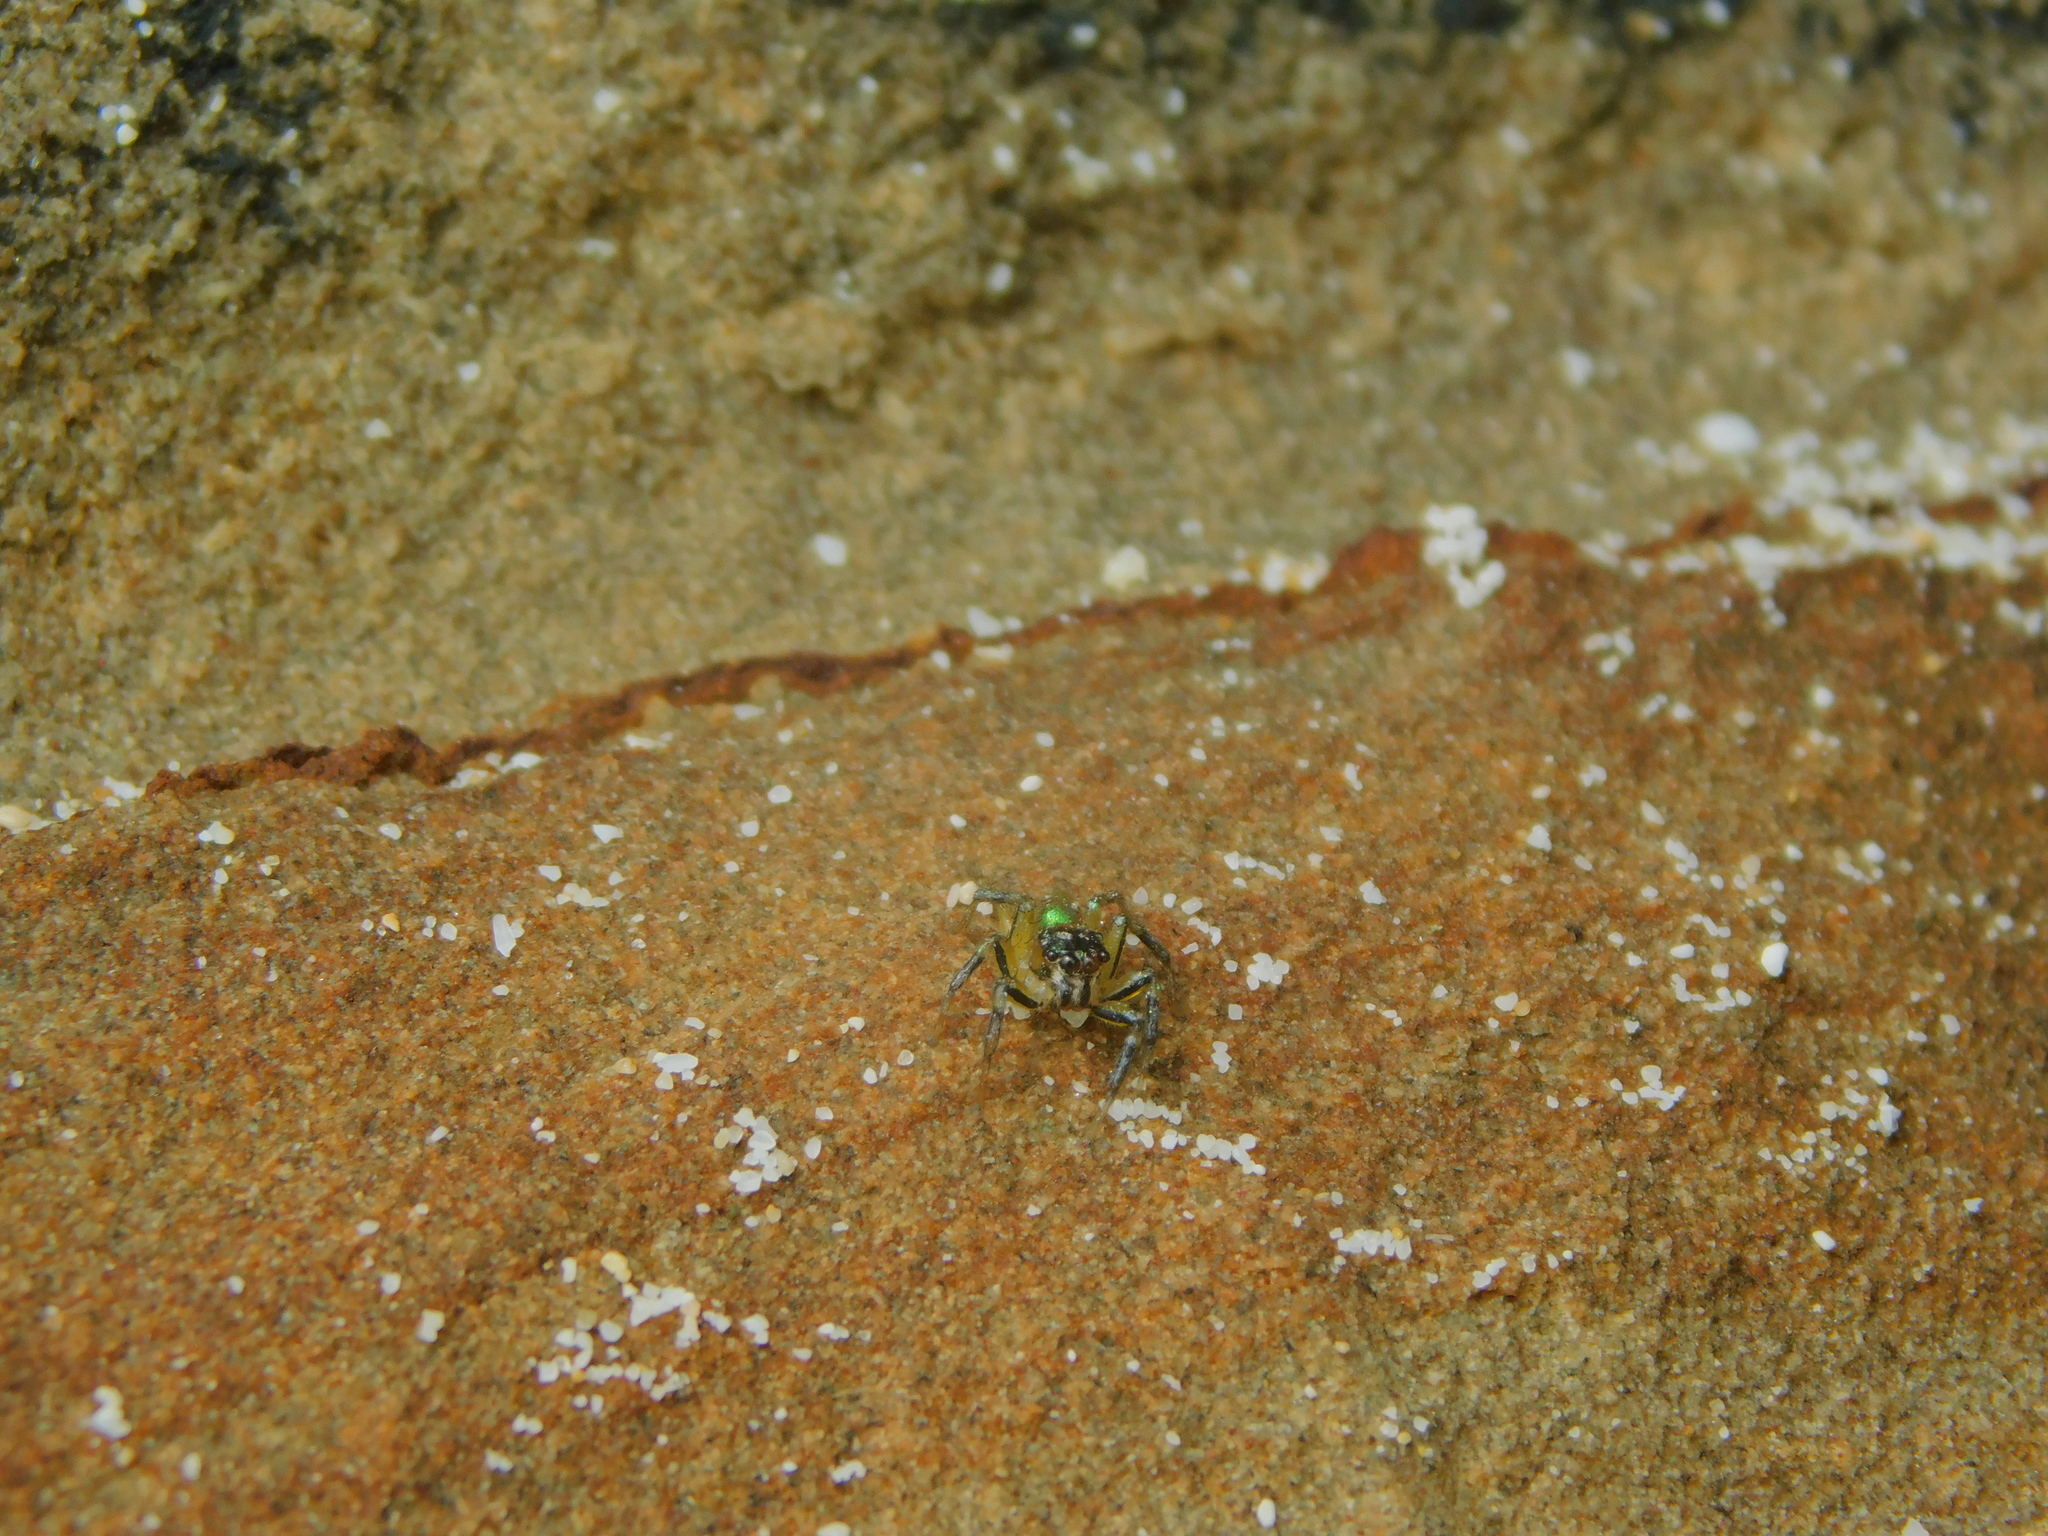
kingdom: Animalia
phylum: Arthropoda
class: Arachnida
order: Araneae
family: Salticidae
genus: Cytaea
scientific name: Cytaea dispalans
